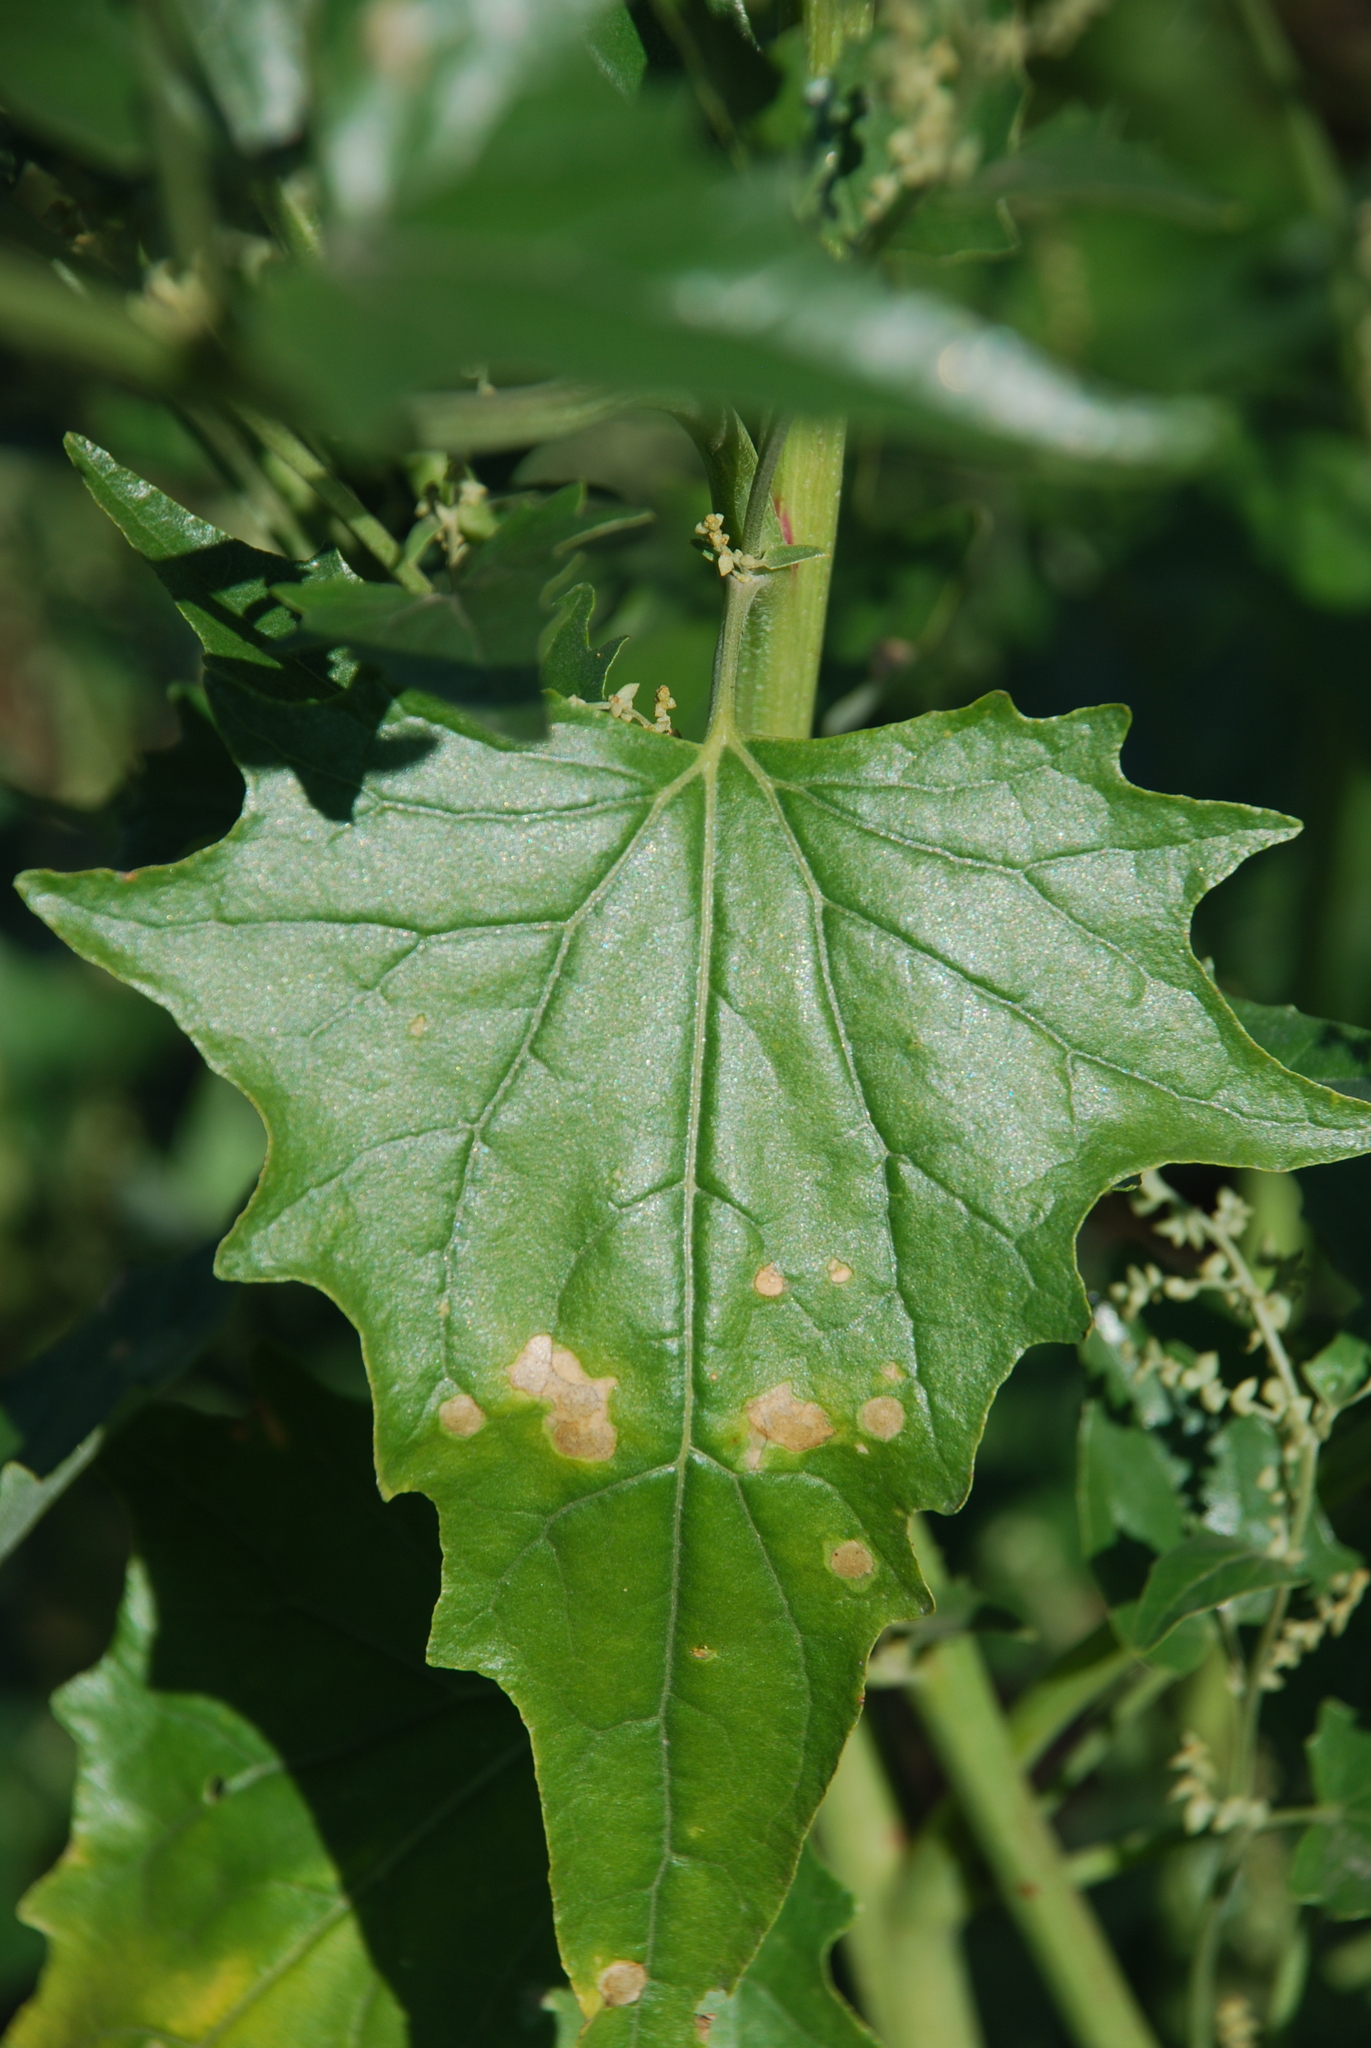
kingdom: Plantae
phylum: Tracheophyta
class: Magnoliopsida
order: Caryophyllales
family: Amaranthaceae
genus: Atriplex
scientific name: Atriplex sagittata
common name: Purple orache
